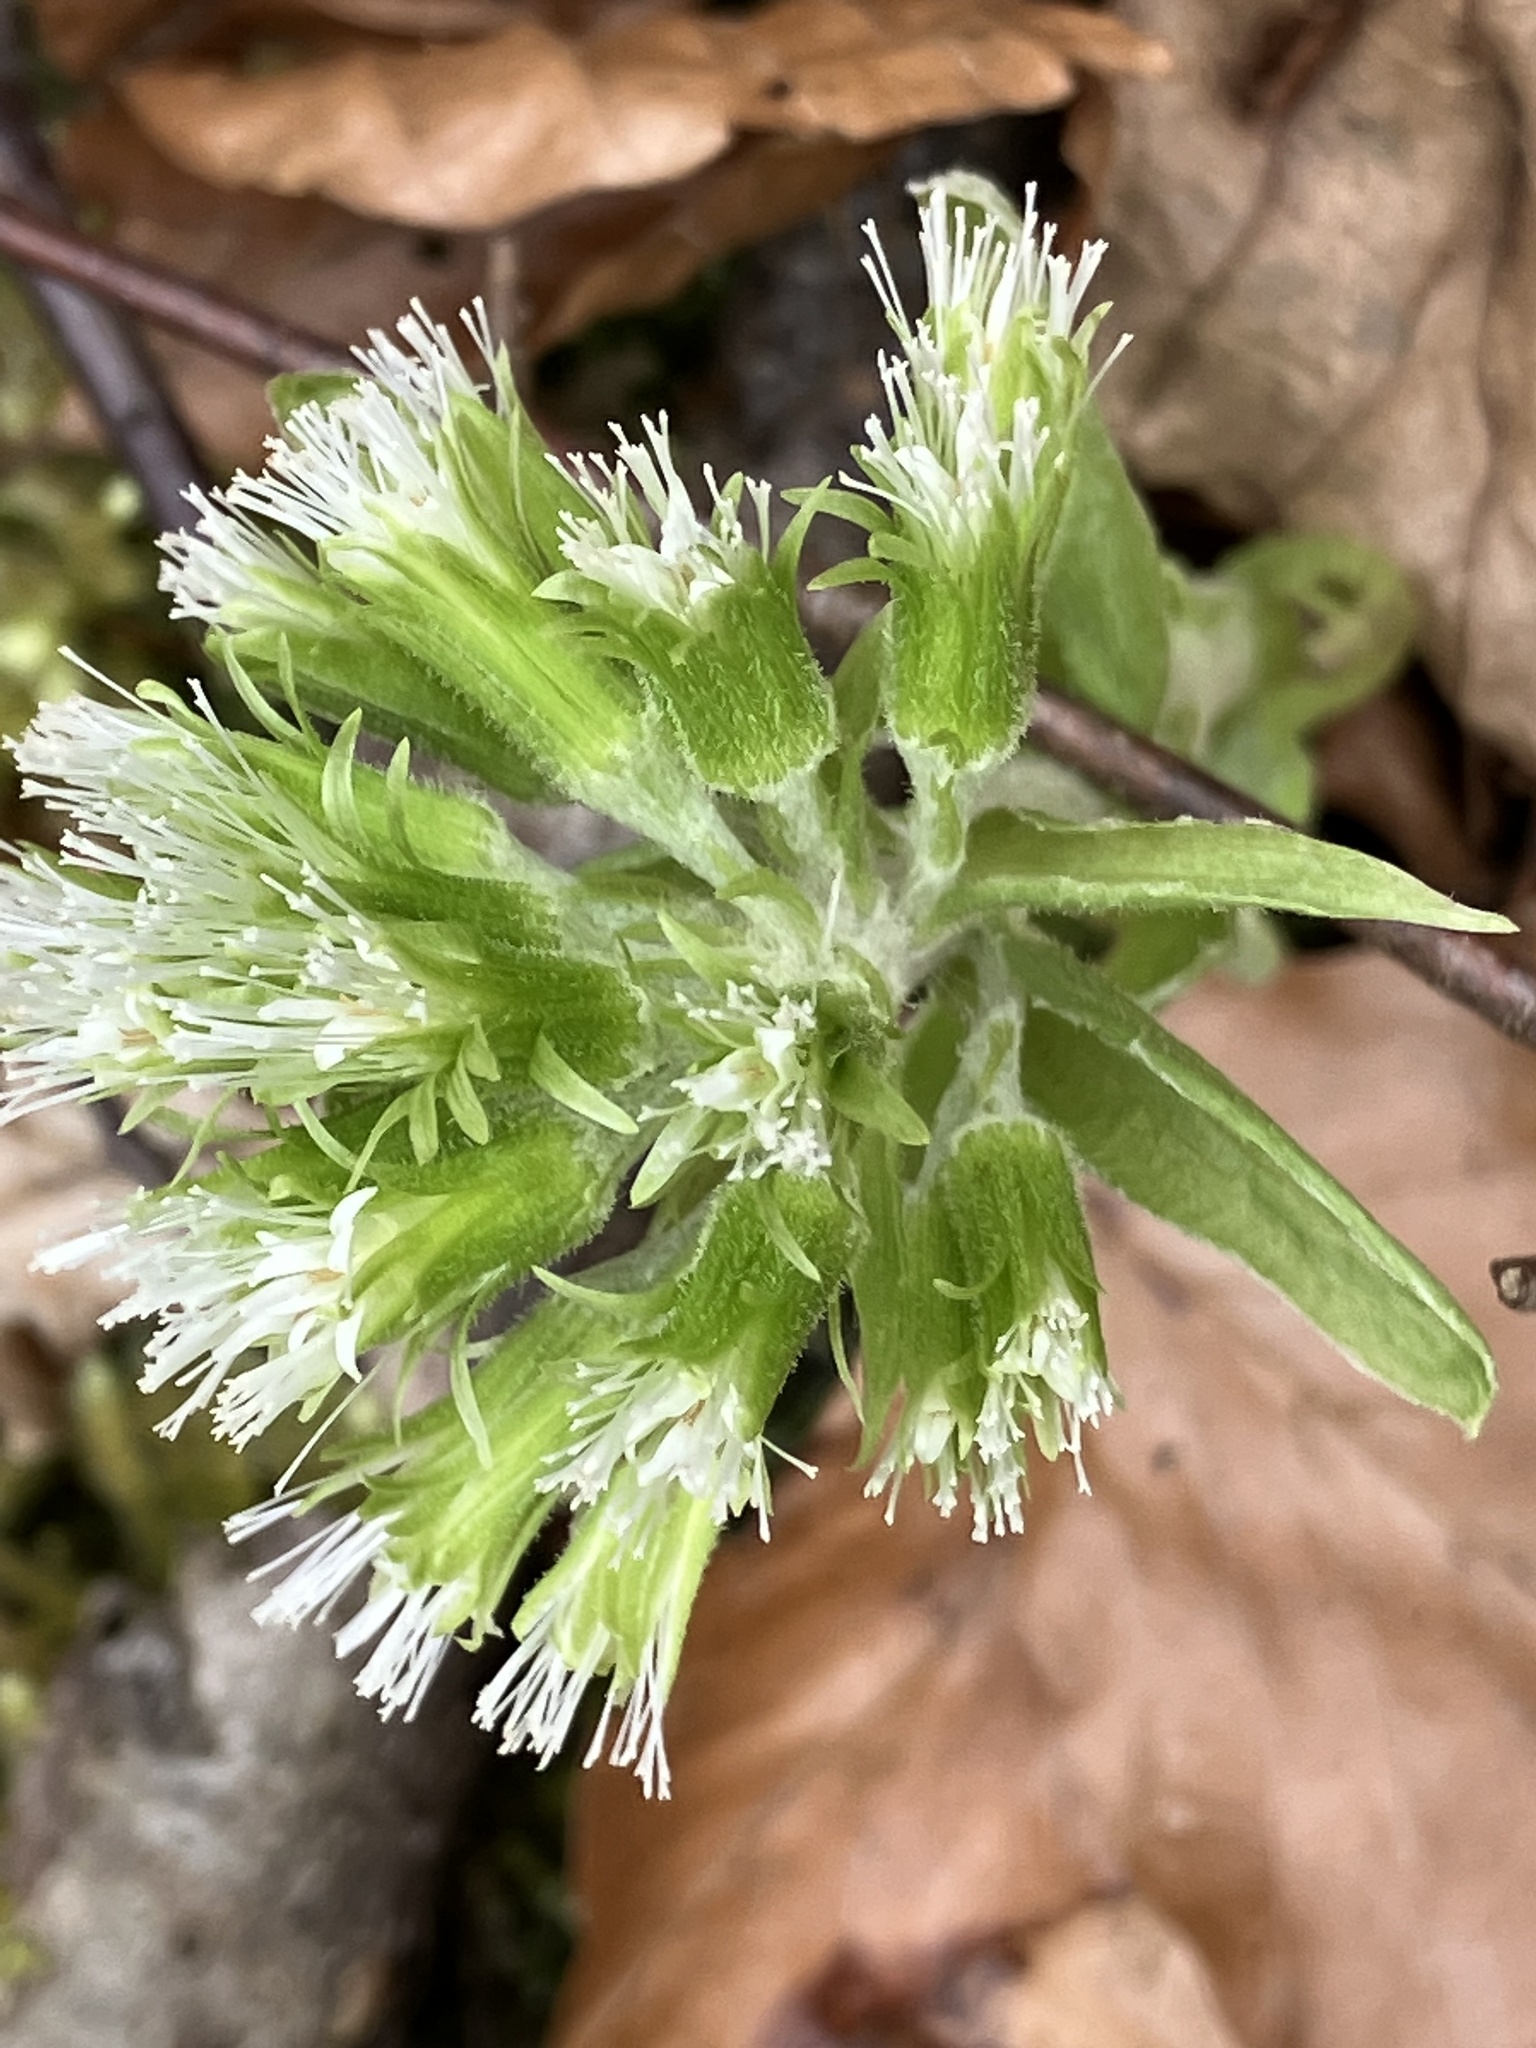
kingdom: Plantae
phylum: Tracheophyta
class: Magnoliopsida
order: Asterales
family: Asteraceae
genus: Petasites
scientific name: Petasites albus
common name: White butterbur
